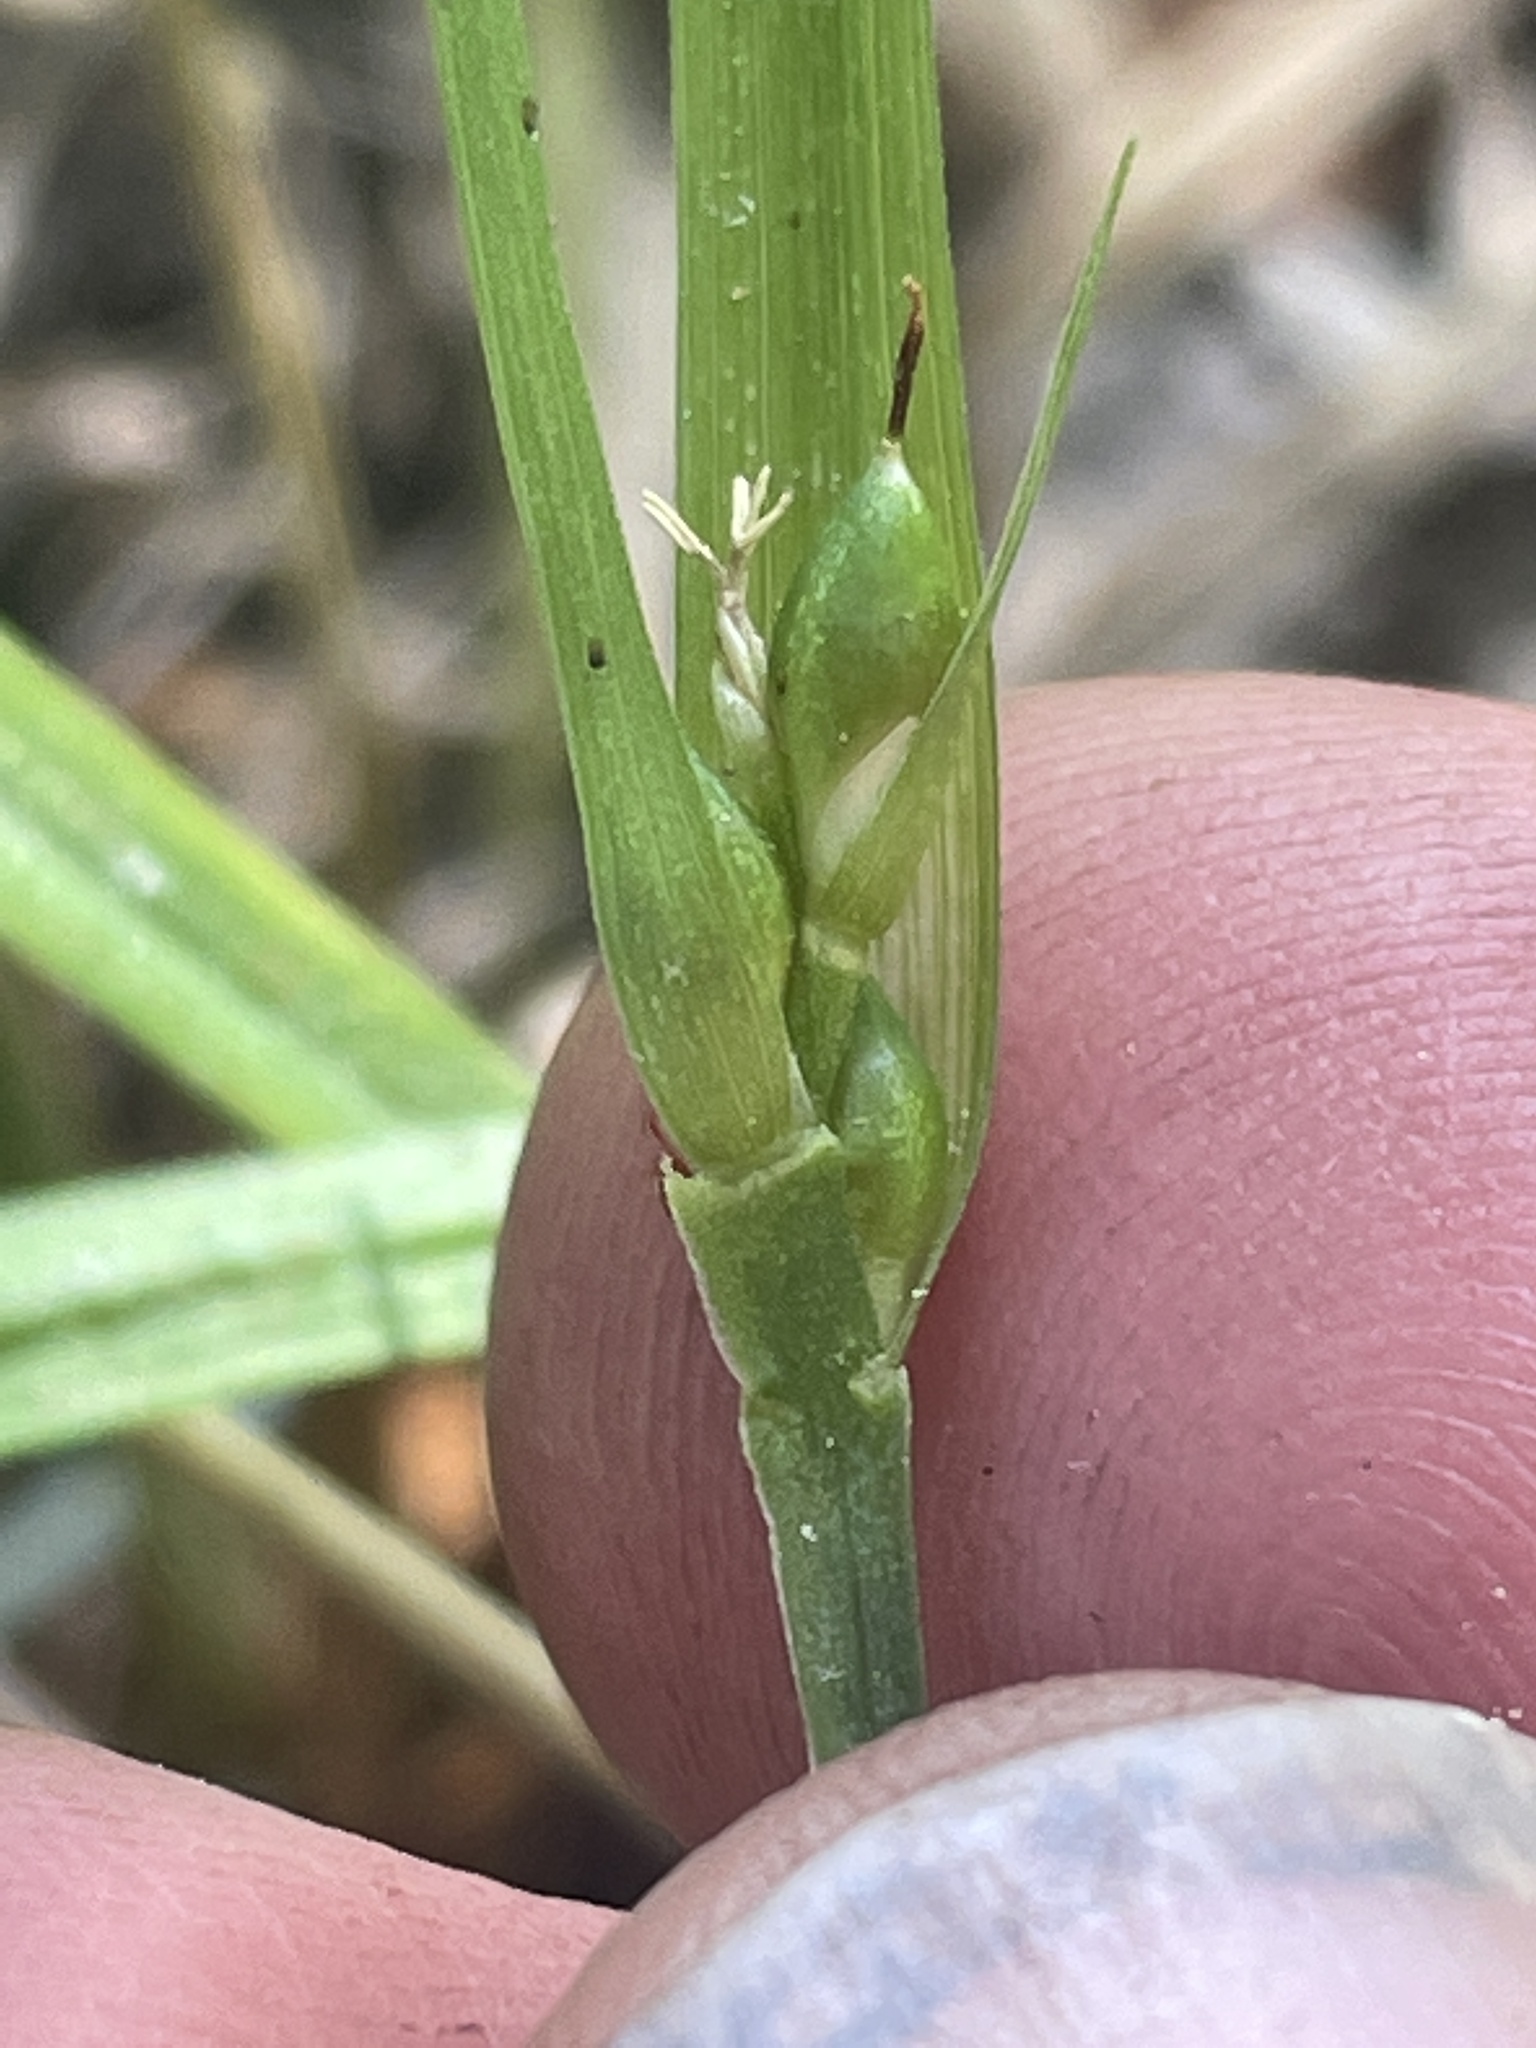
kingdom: Plantae
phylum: Tracheophyta
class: Liliopsida
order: Poales
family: Cyperaceae
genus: Carex
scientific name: Carex cordillerana
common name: Cordilleran sedge
